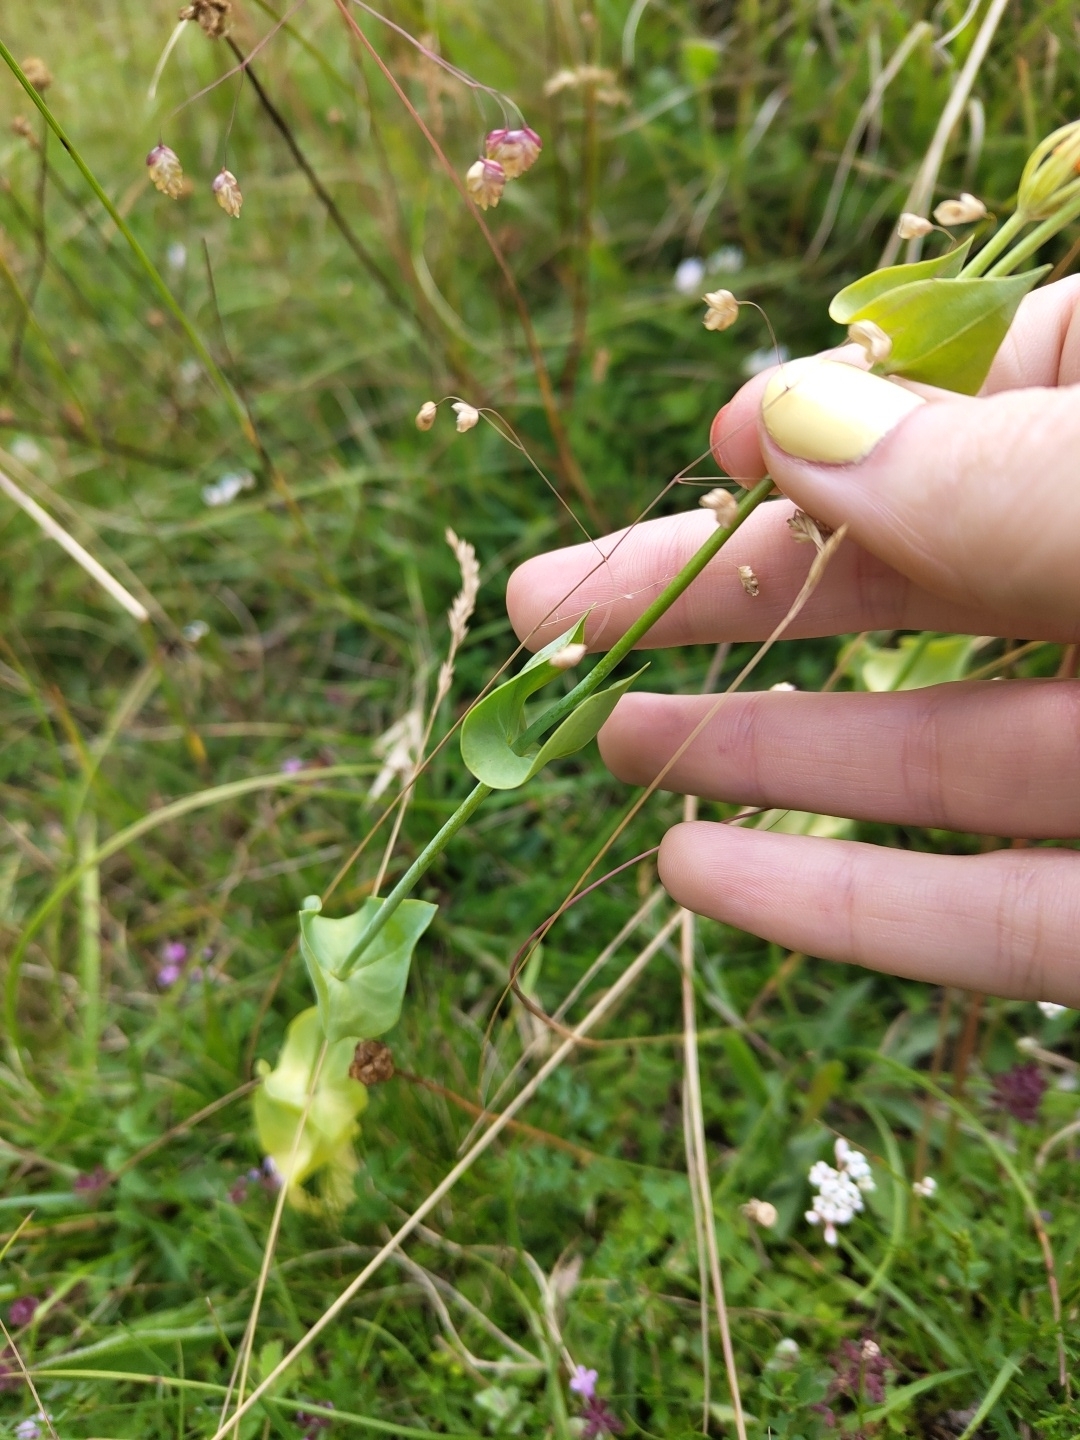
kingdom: Plantae
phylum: Tracheophyta
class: Magnoliopsida
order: Gentianales
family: Gentianaceae
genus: Blackstonia
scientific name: Blackstonia perfoliata
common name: Yellow-wort
